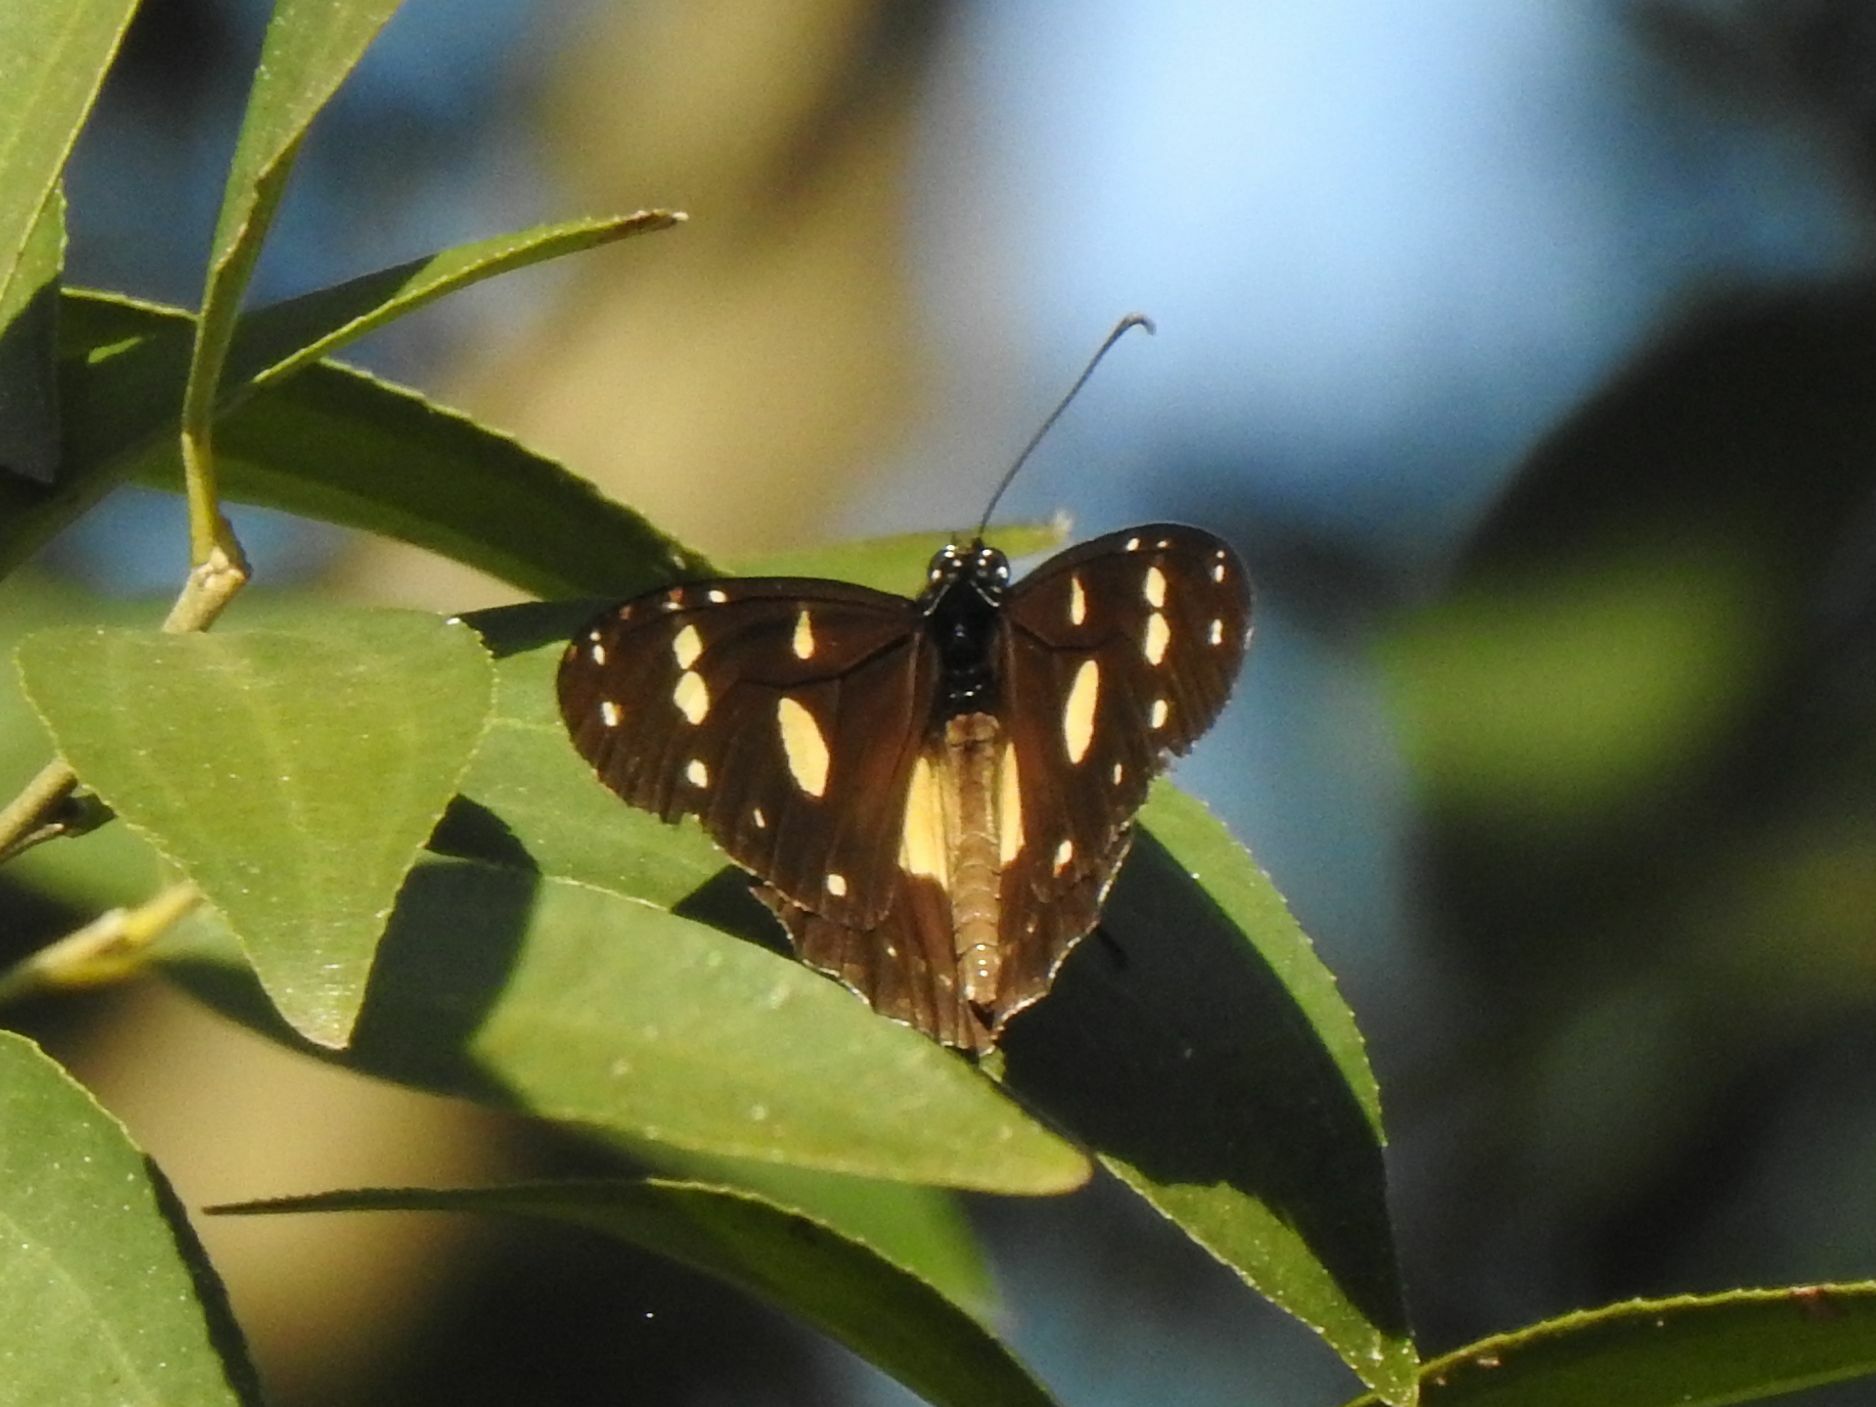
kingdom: Animalia
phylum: Arthropoda
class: Insecta
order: Lepidoptera
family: Nymphalidae
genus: Amauris
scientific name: Amauris echeria
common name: Chief
